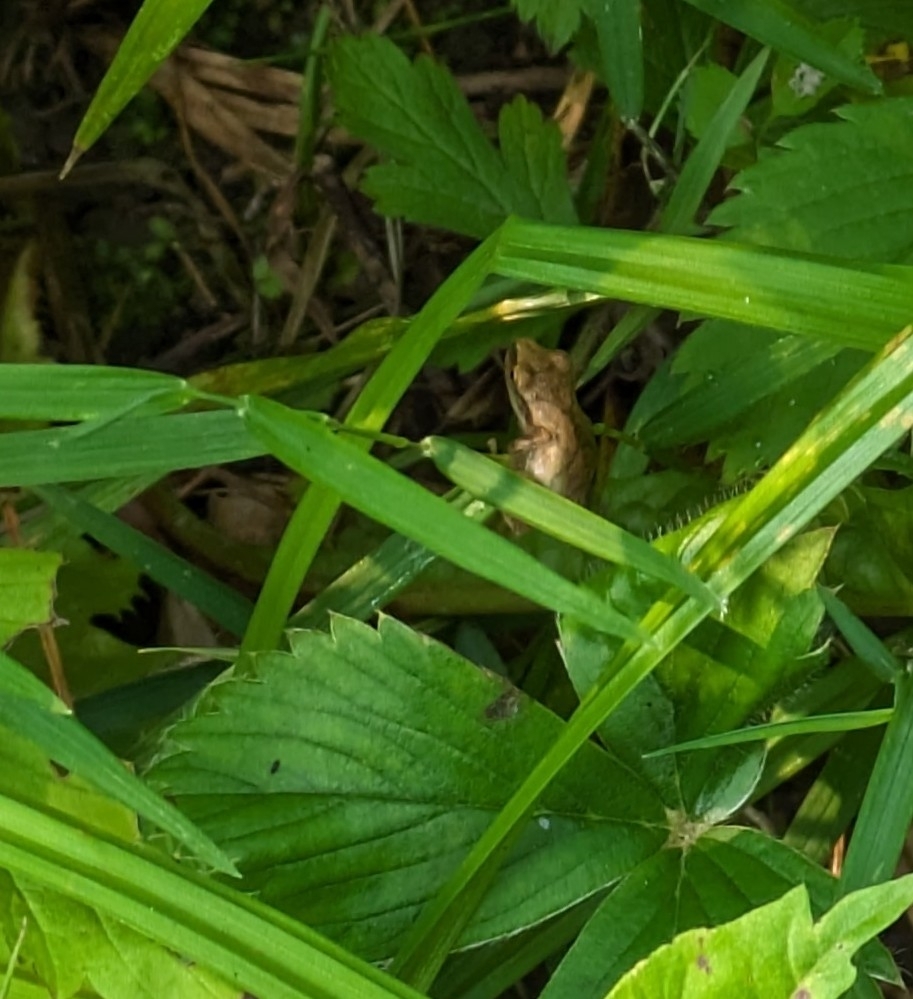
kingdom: Animalia
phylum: Chordata
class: Amphibia
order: Anura
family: Hylidae
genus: Pseudacris
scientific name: Pseudacris crucifer
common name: Spring peeper
